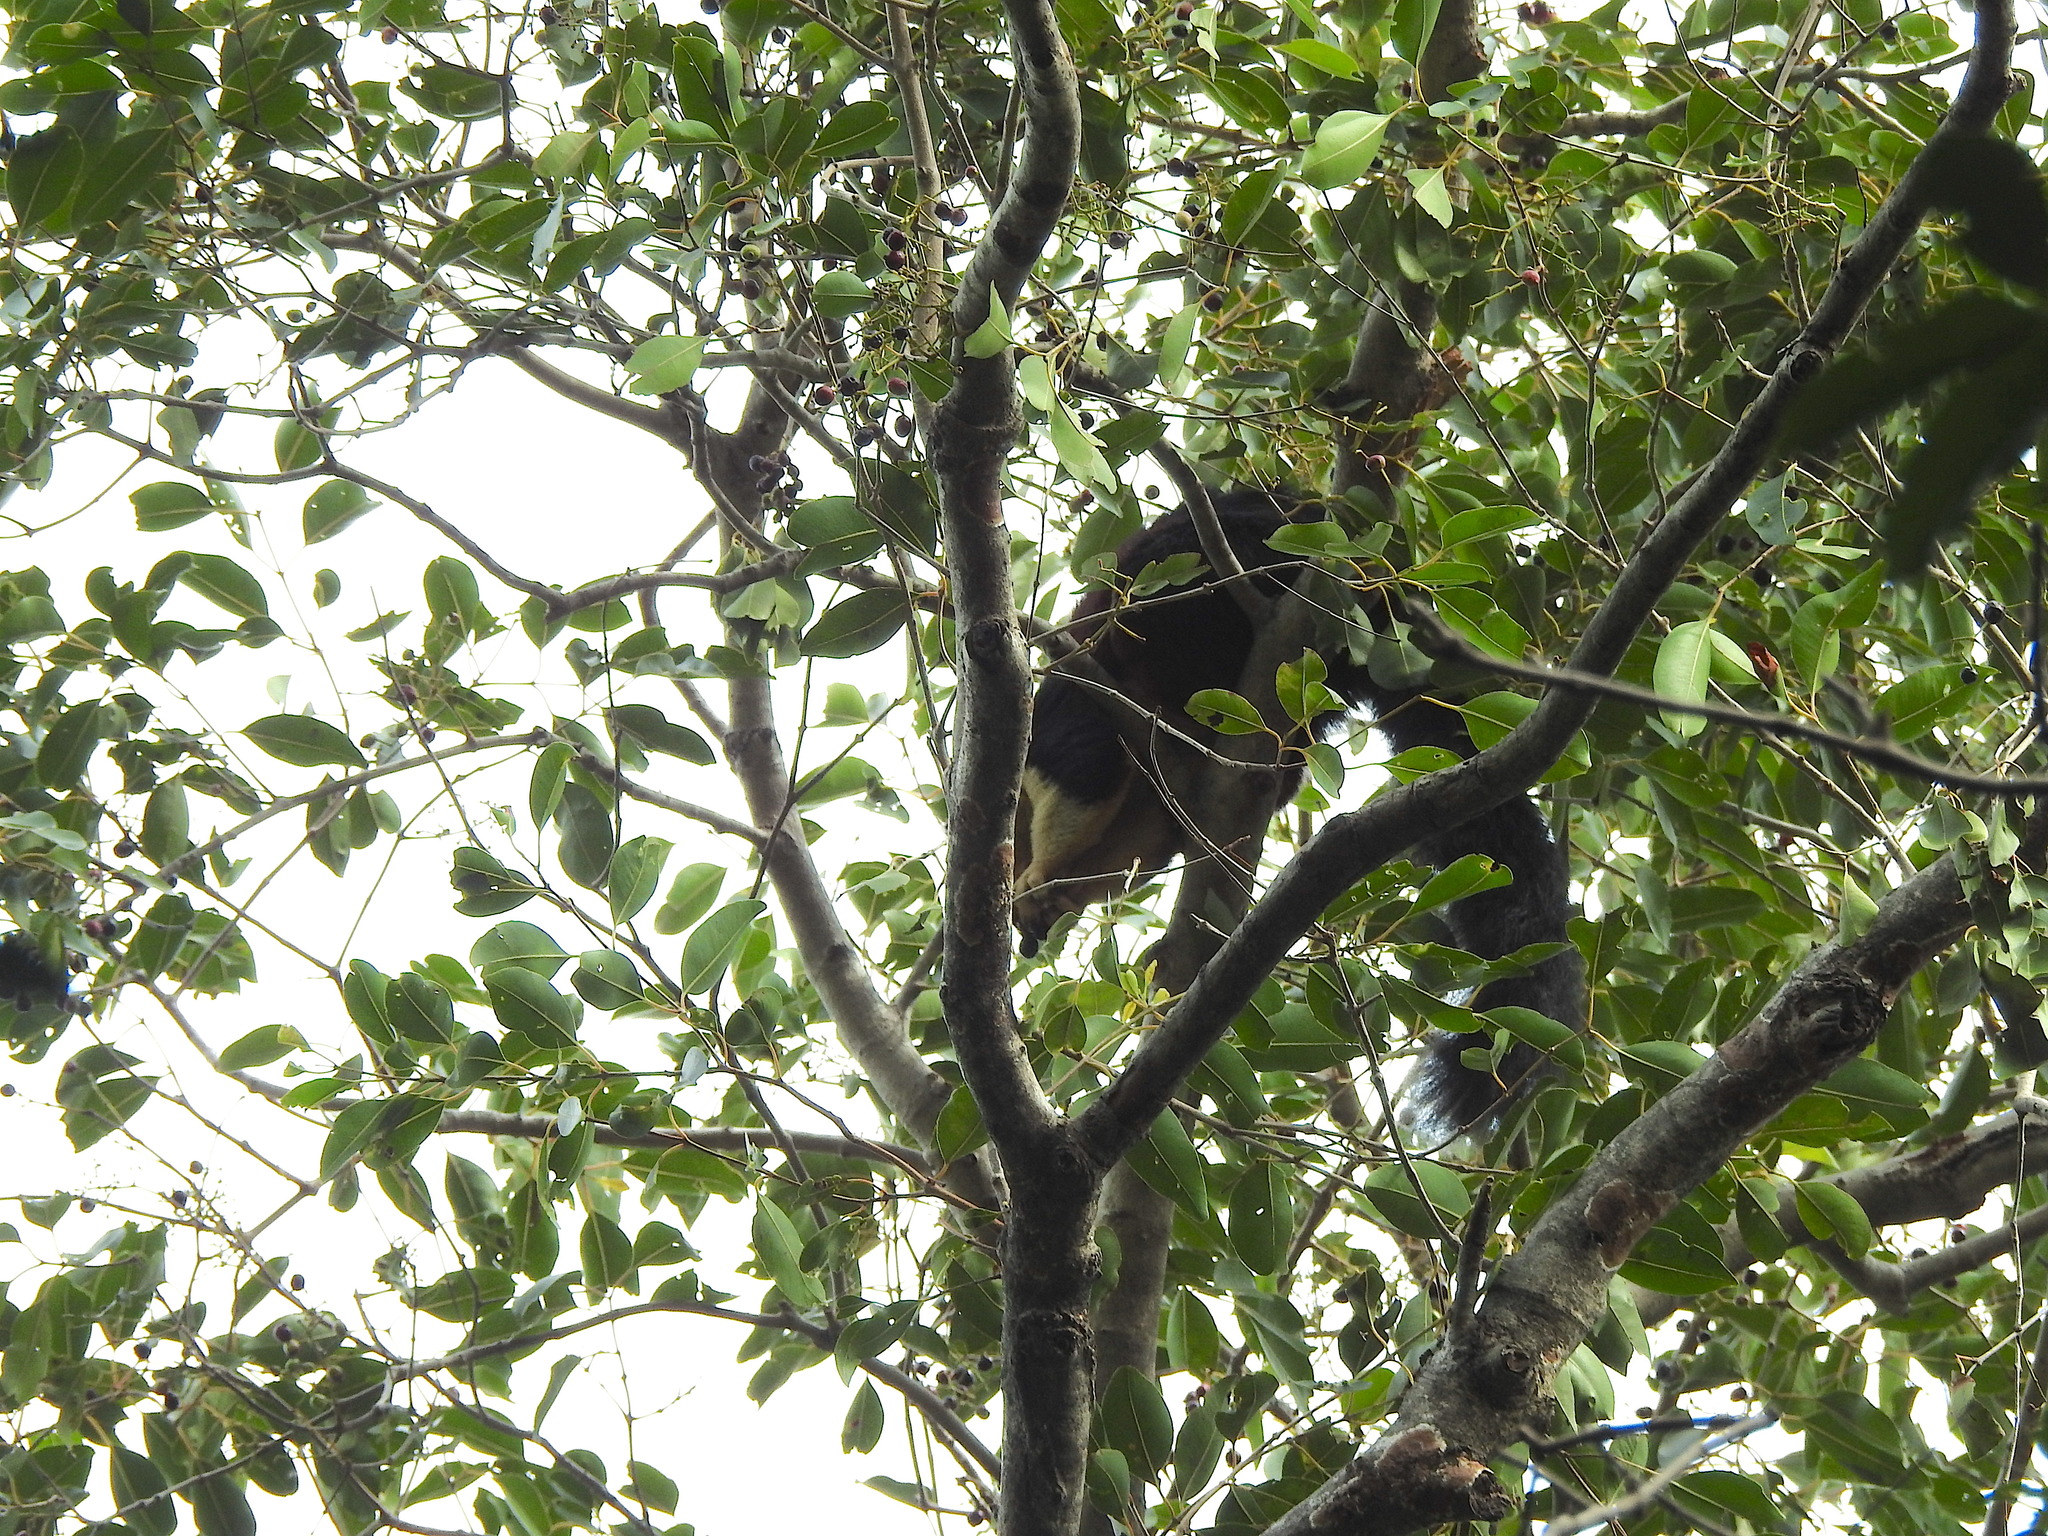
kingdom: Animalia
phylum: Chordata
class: Mammalia
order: Rodentia
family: Sciuridae
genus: Ratufa
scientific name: Ratufa indica
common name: Indian giant squirrel
